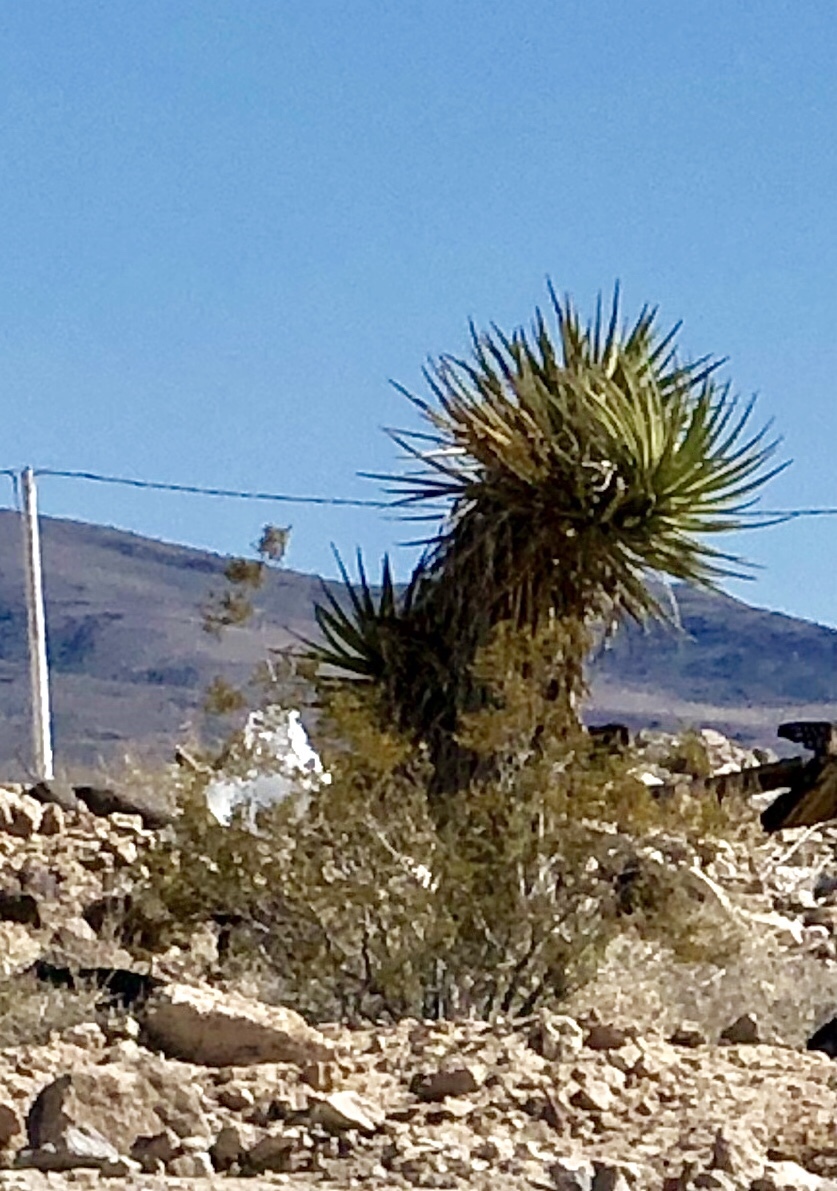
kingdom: Plantae
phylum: Tracheophyta
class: Liliopsida
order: Asparagales
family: Asparagaceae
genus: Yucca
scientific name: Yucca schidigera
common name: Mojave yucca
